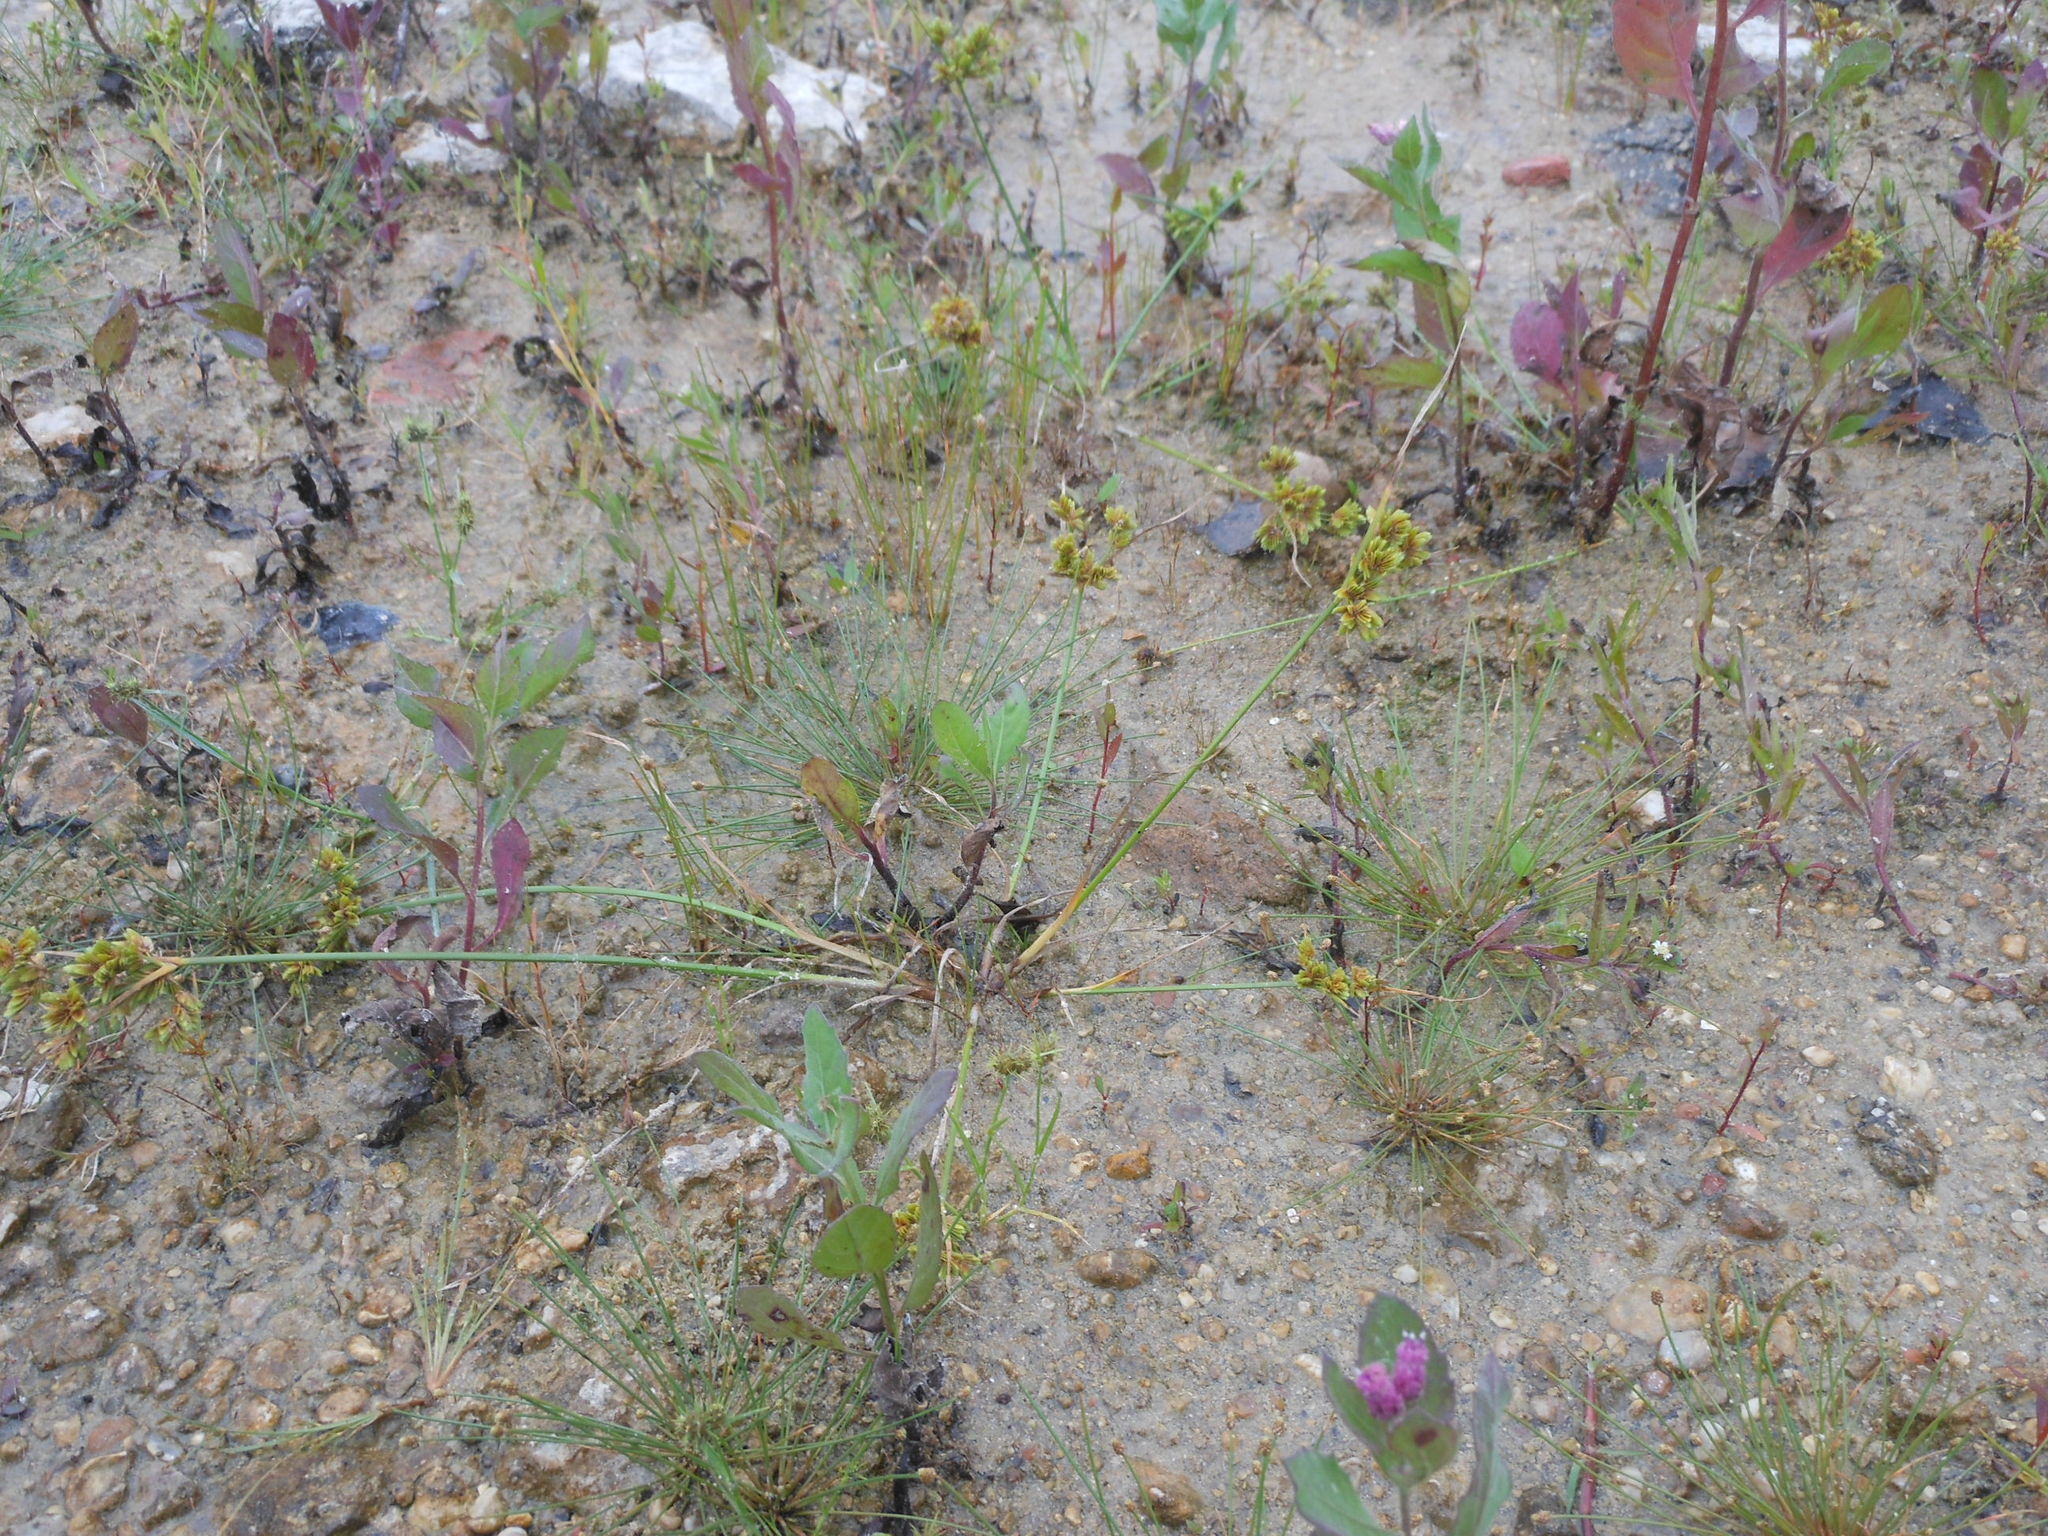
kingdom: Plantae
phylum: Tracheophyta
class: Liliopsida
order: Poales
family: Cyperaceae
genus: Cyperus
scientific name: Cyperus surinamensis
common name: Tropical flat sedge
